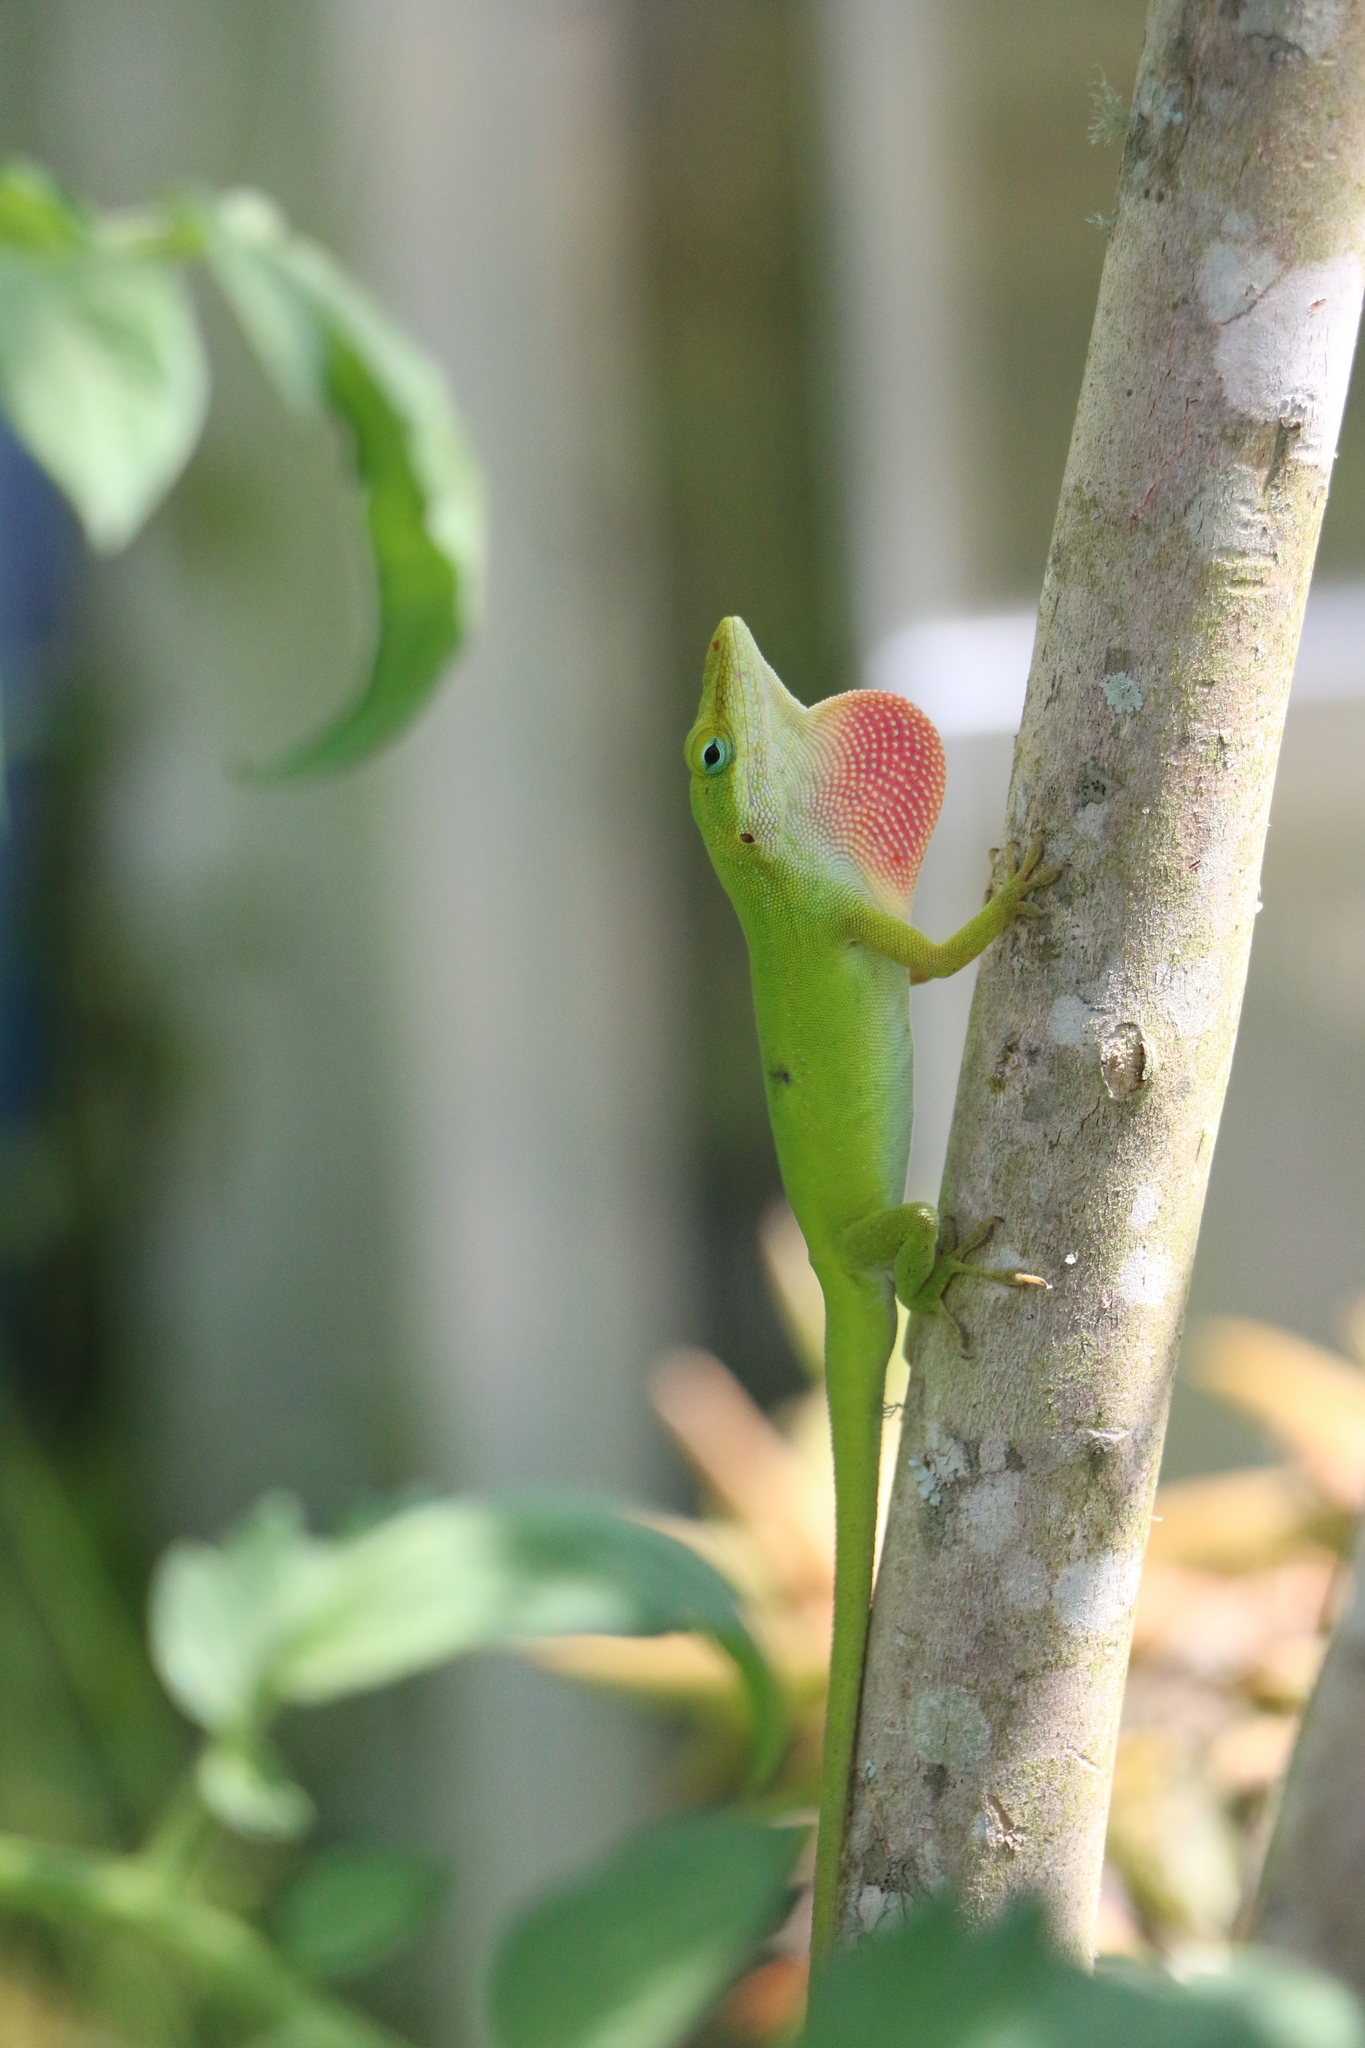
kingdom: Animalia
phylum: Chordata
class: Squamata
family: Dactyloidae
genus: Anolis
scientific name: Anolis carolinensis
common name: Green anole
